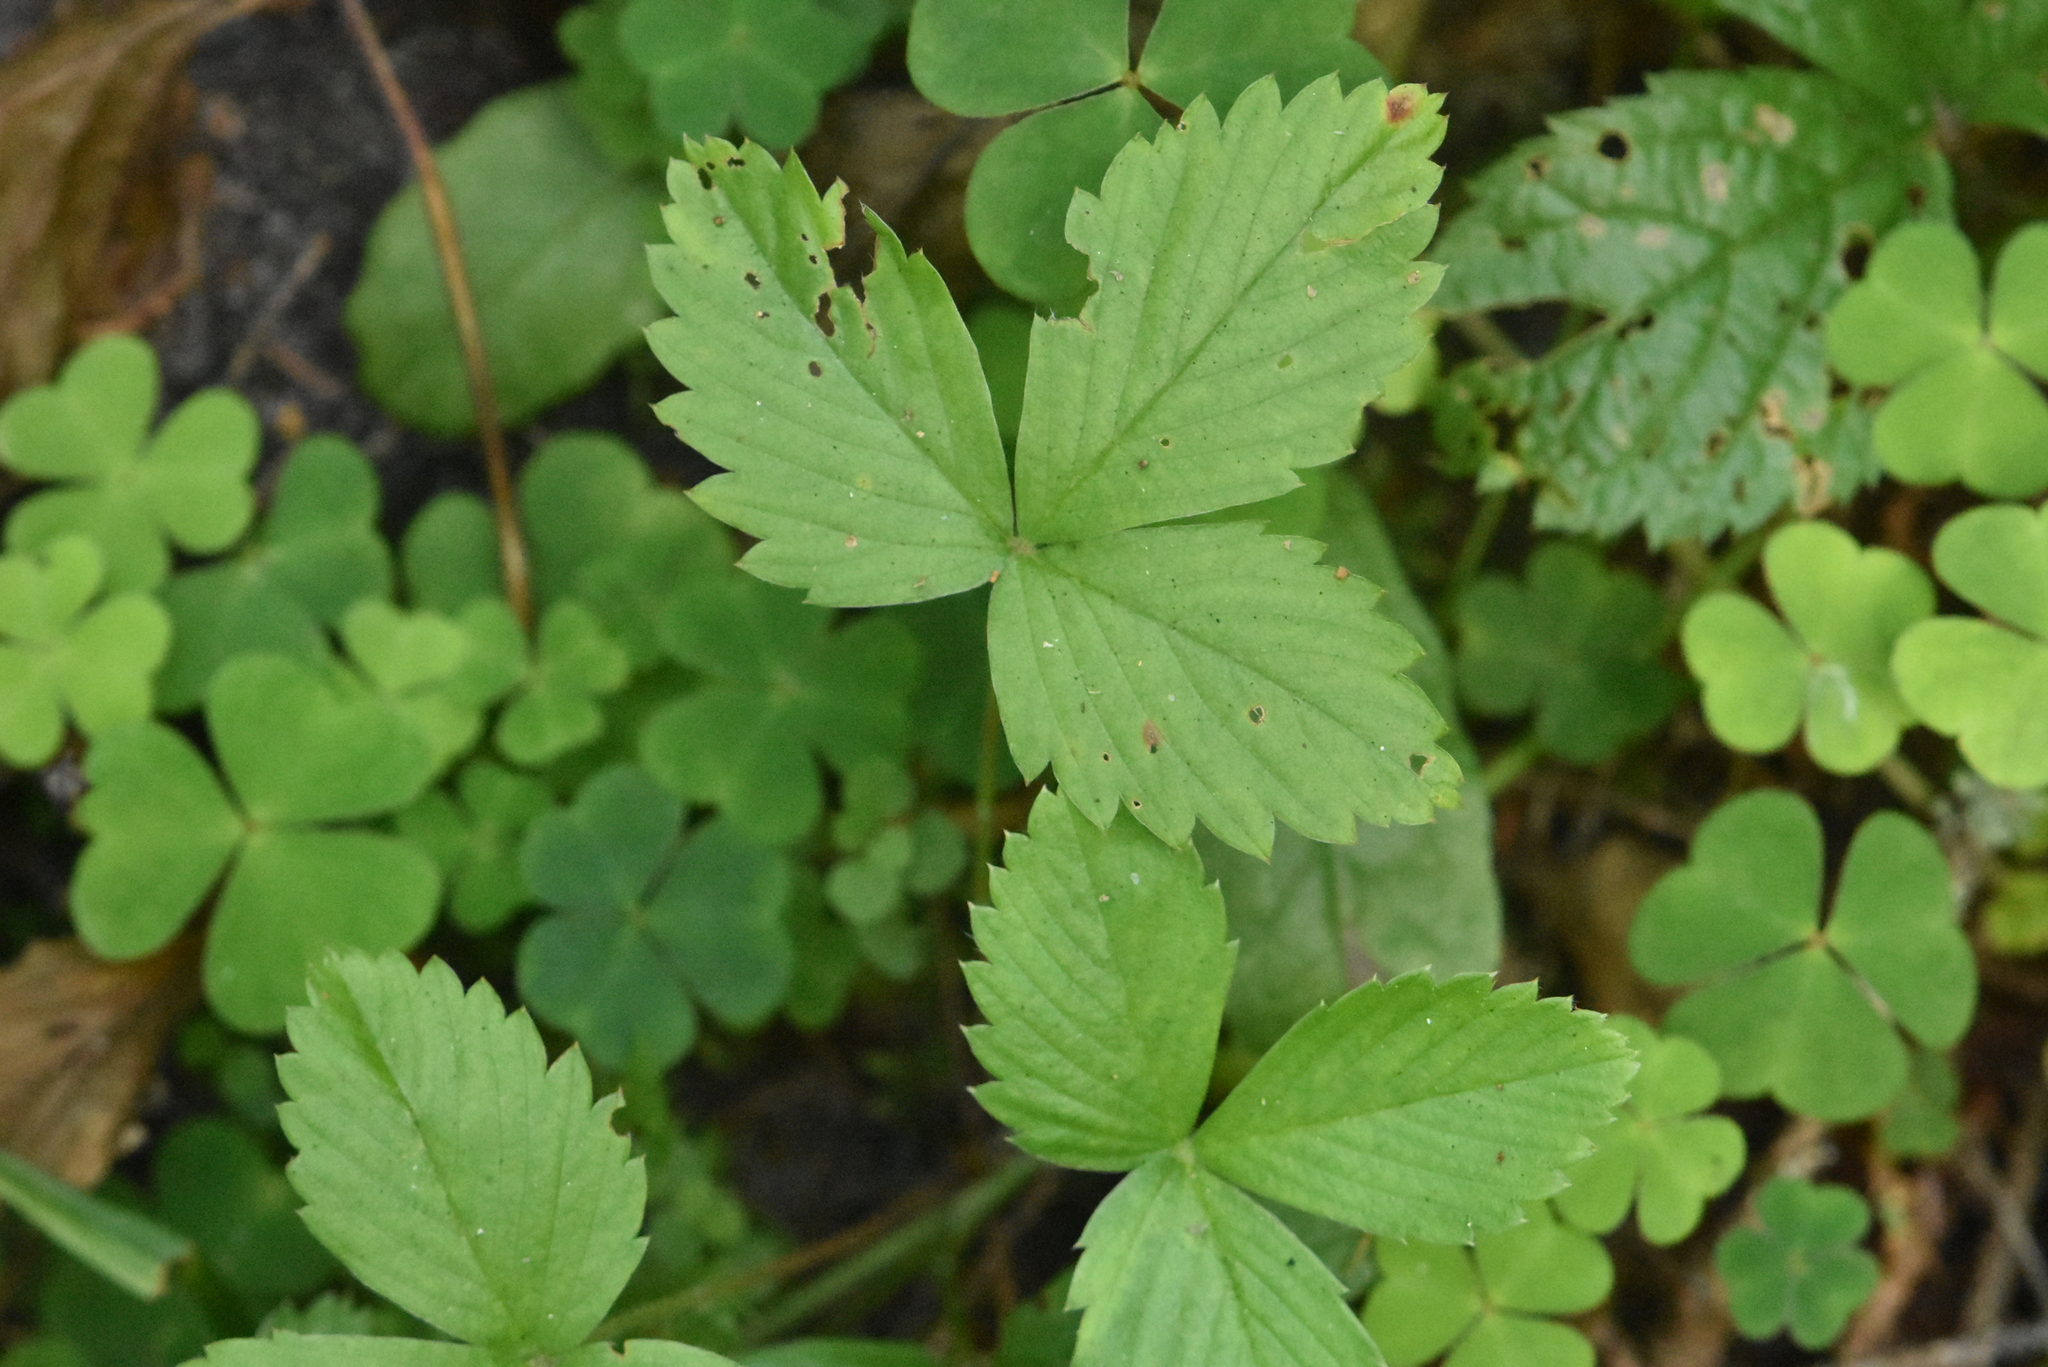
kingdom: Plantae
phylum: Tracheophyta
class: Magnoliopsida
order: Rosales
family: Rosaceae
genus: Fragaria
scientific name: Fragaria vesca
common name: Wild strawberry
